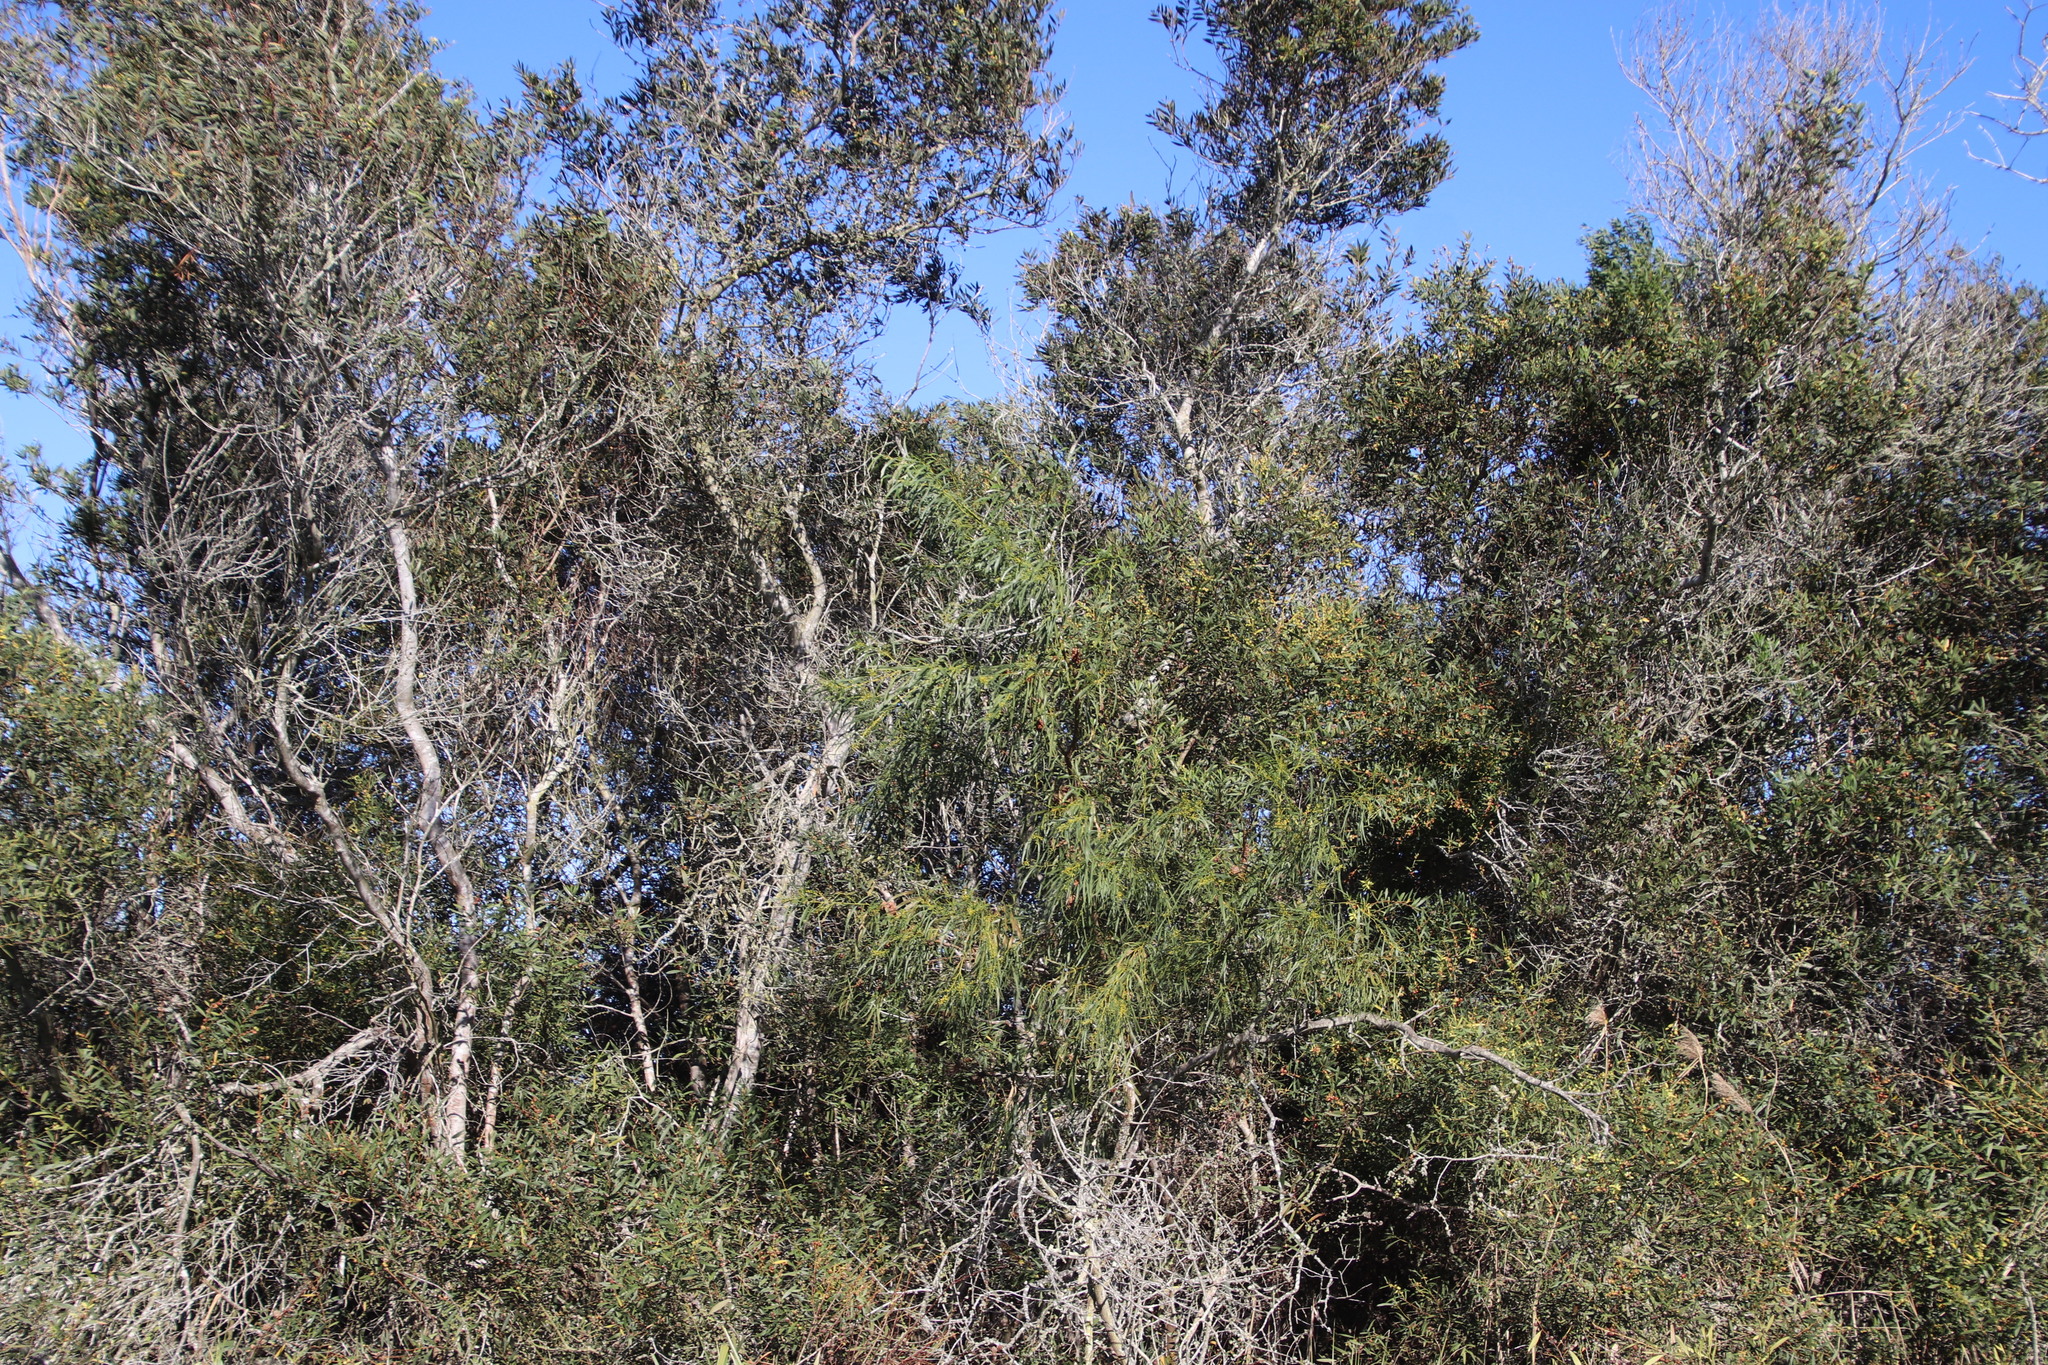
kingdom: Plantae
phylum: Tracheophyta
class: Magnoliopsida
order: Fabales
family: Fabaceae
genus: Acacia
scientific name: Acacia saligna
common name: Orange wattle
